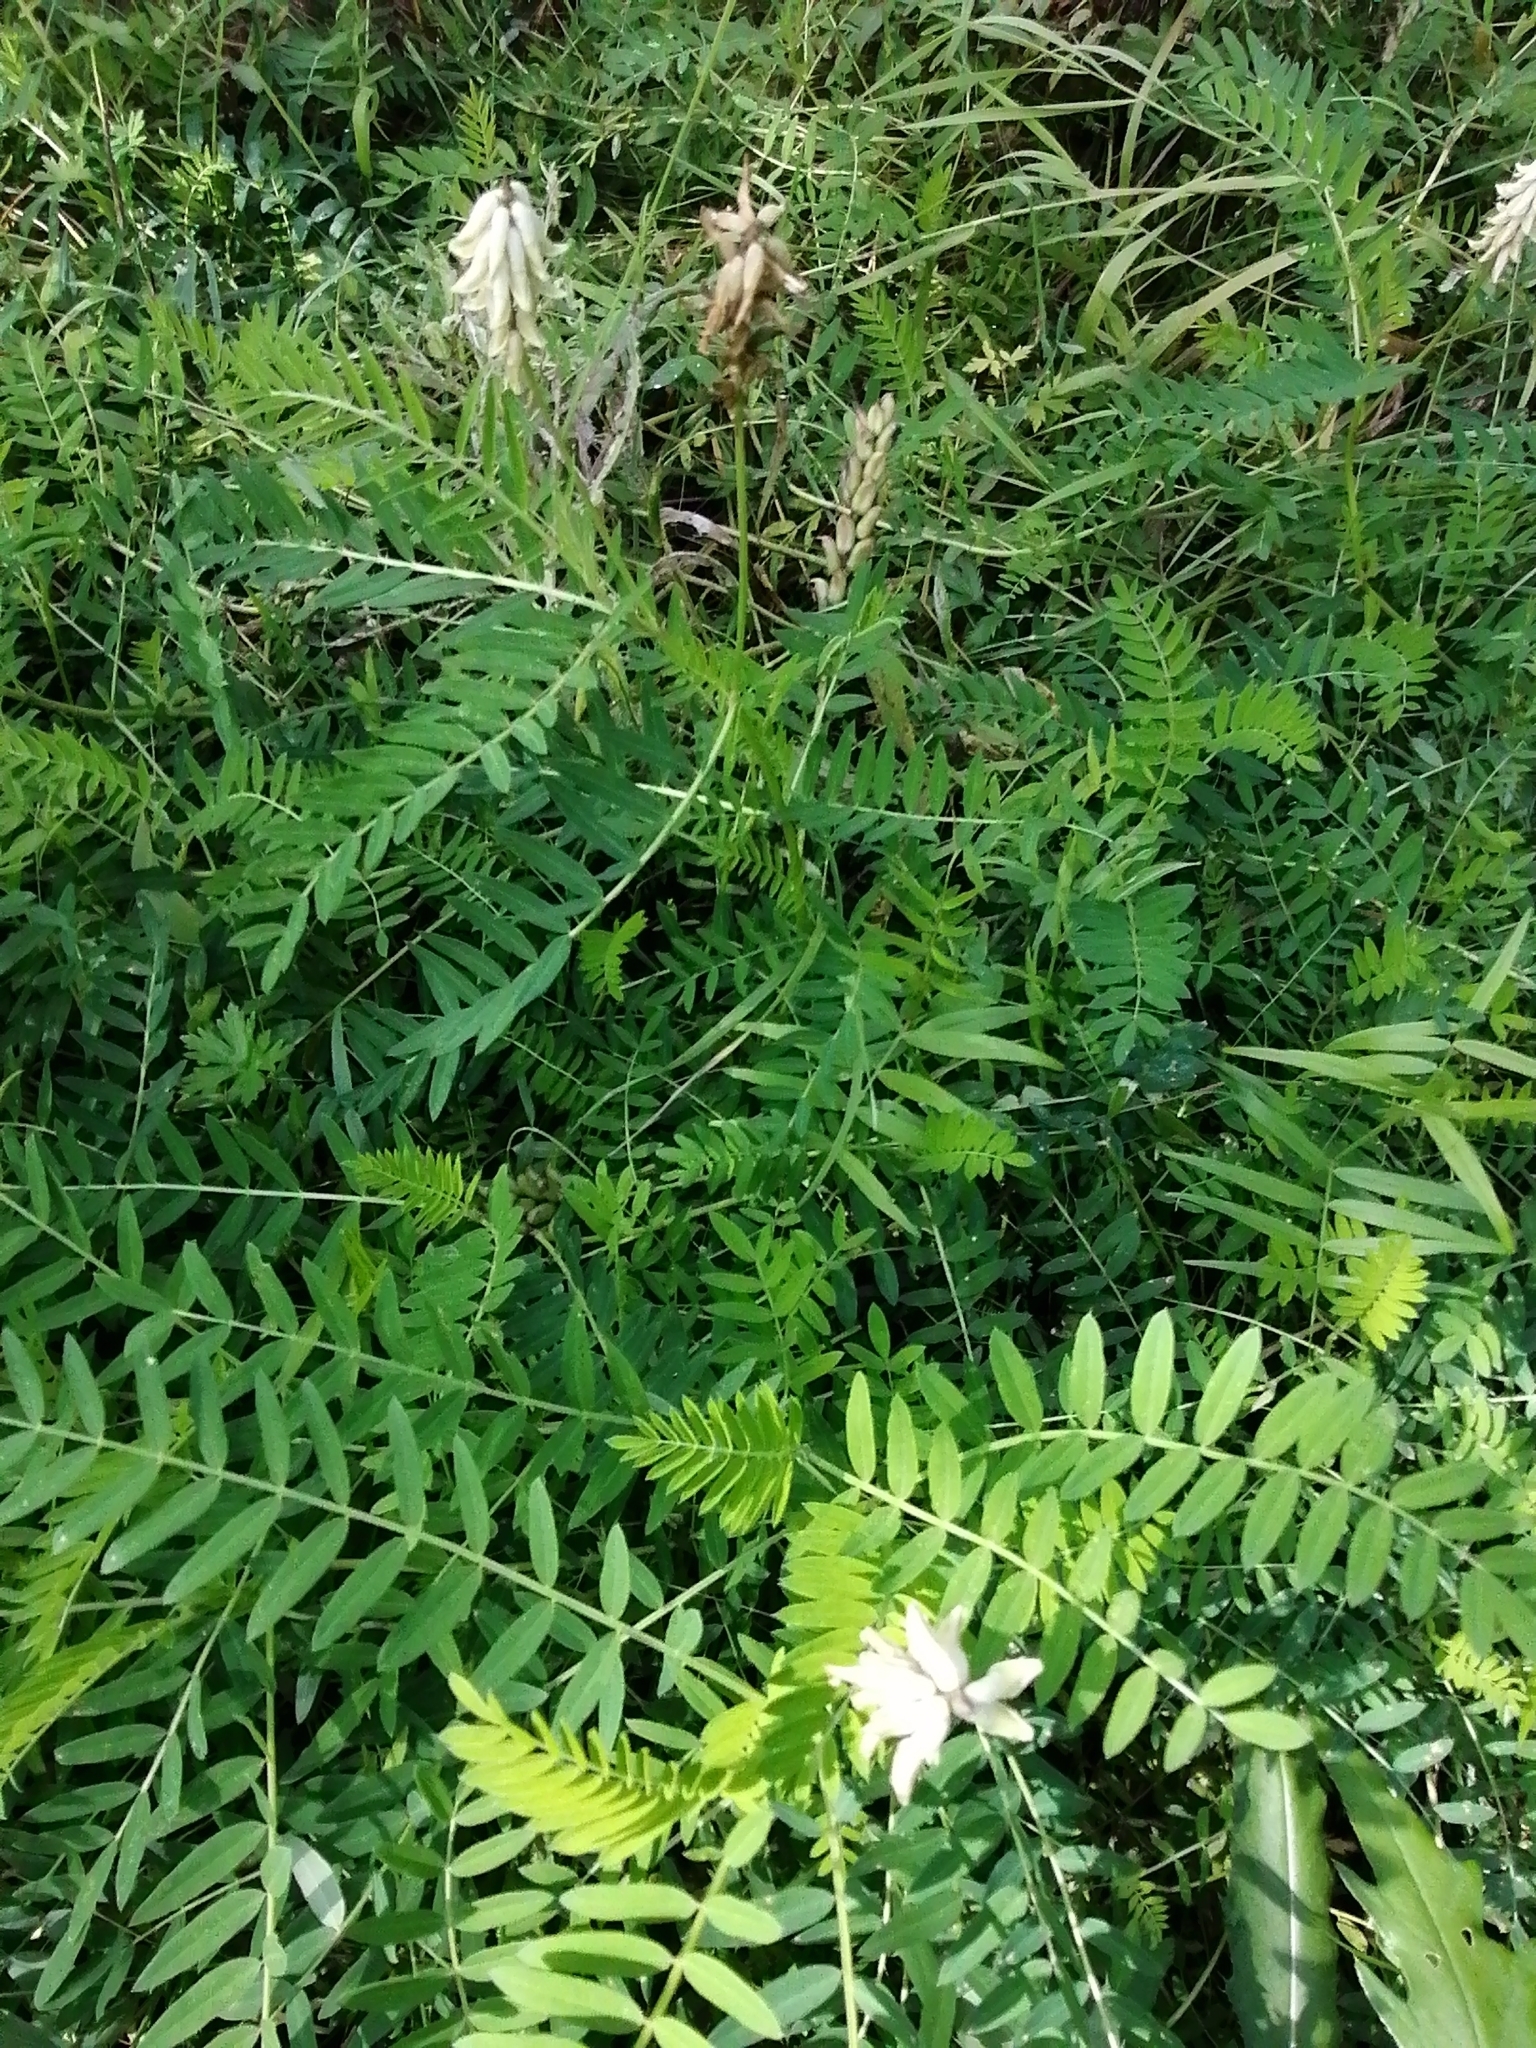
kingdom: Plantae
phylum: Tracheophyta
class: Magnoliopsida
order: Fabales
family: Fabaceae
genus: Astragalus
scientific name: Astragalus uliginosus
